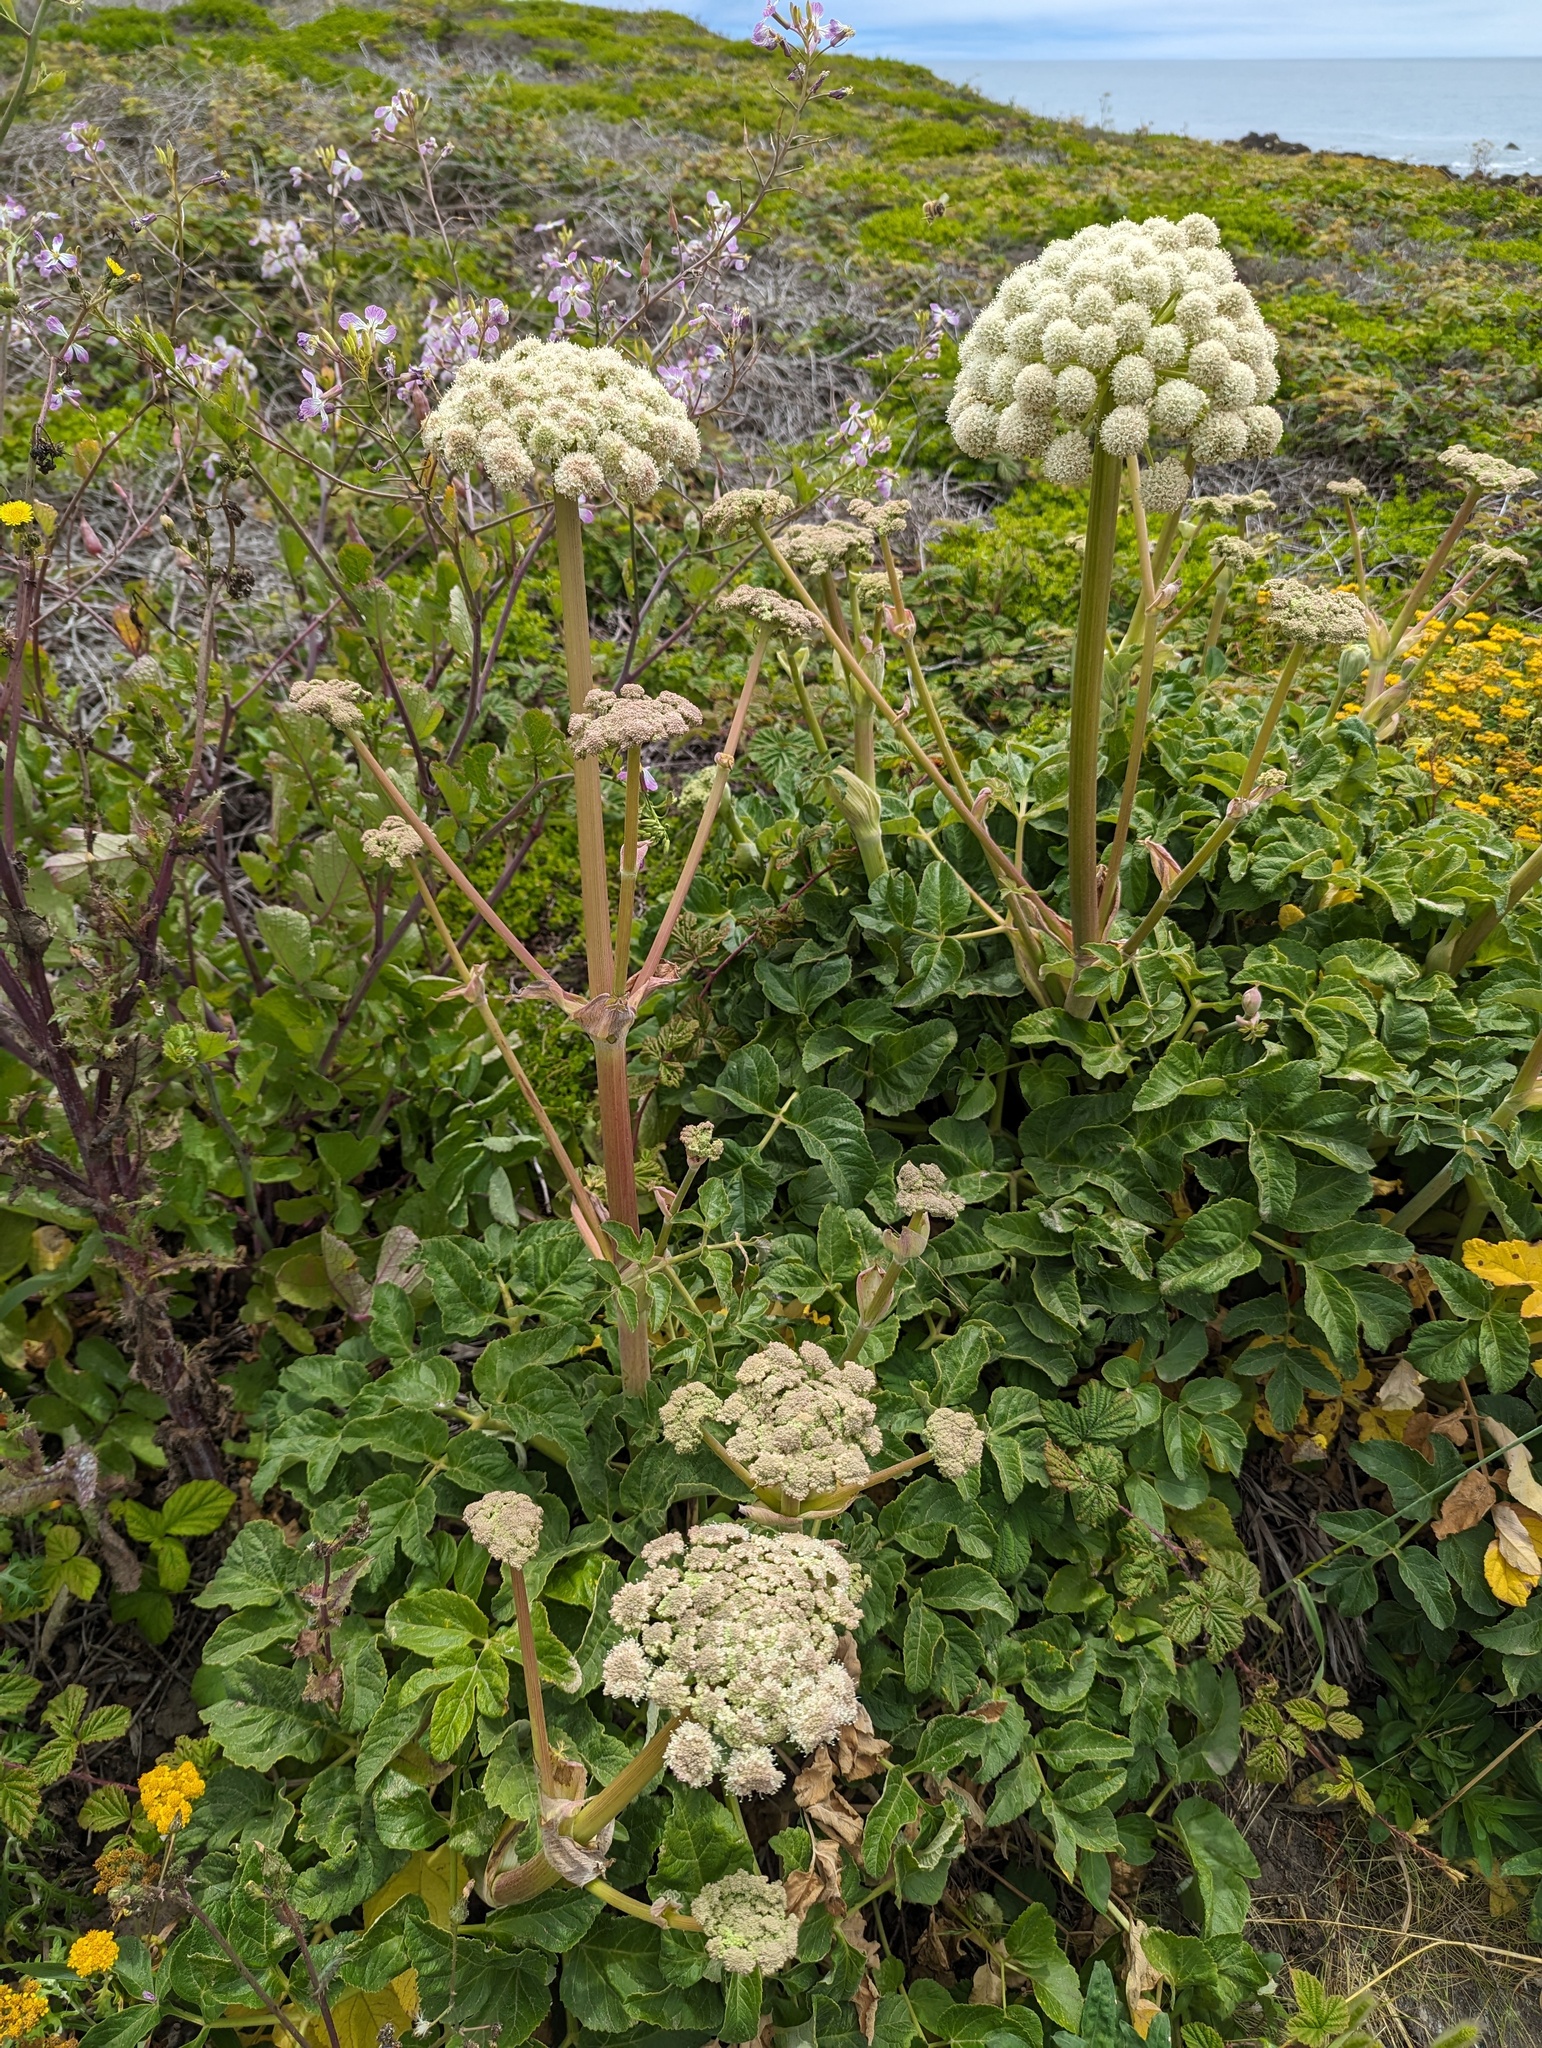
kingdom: Plantae
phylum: Tracheophyta
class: Magnoliopsida
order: Apiales
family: Apiaceae
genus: Angelica
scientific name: Angelica hendersonii
